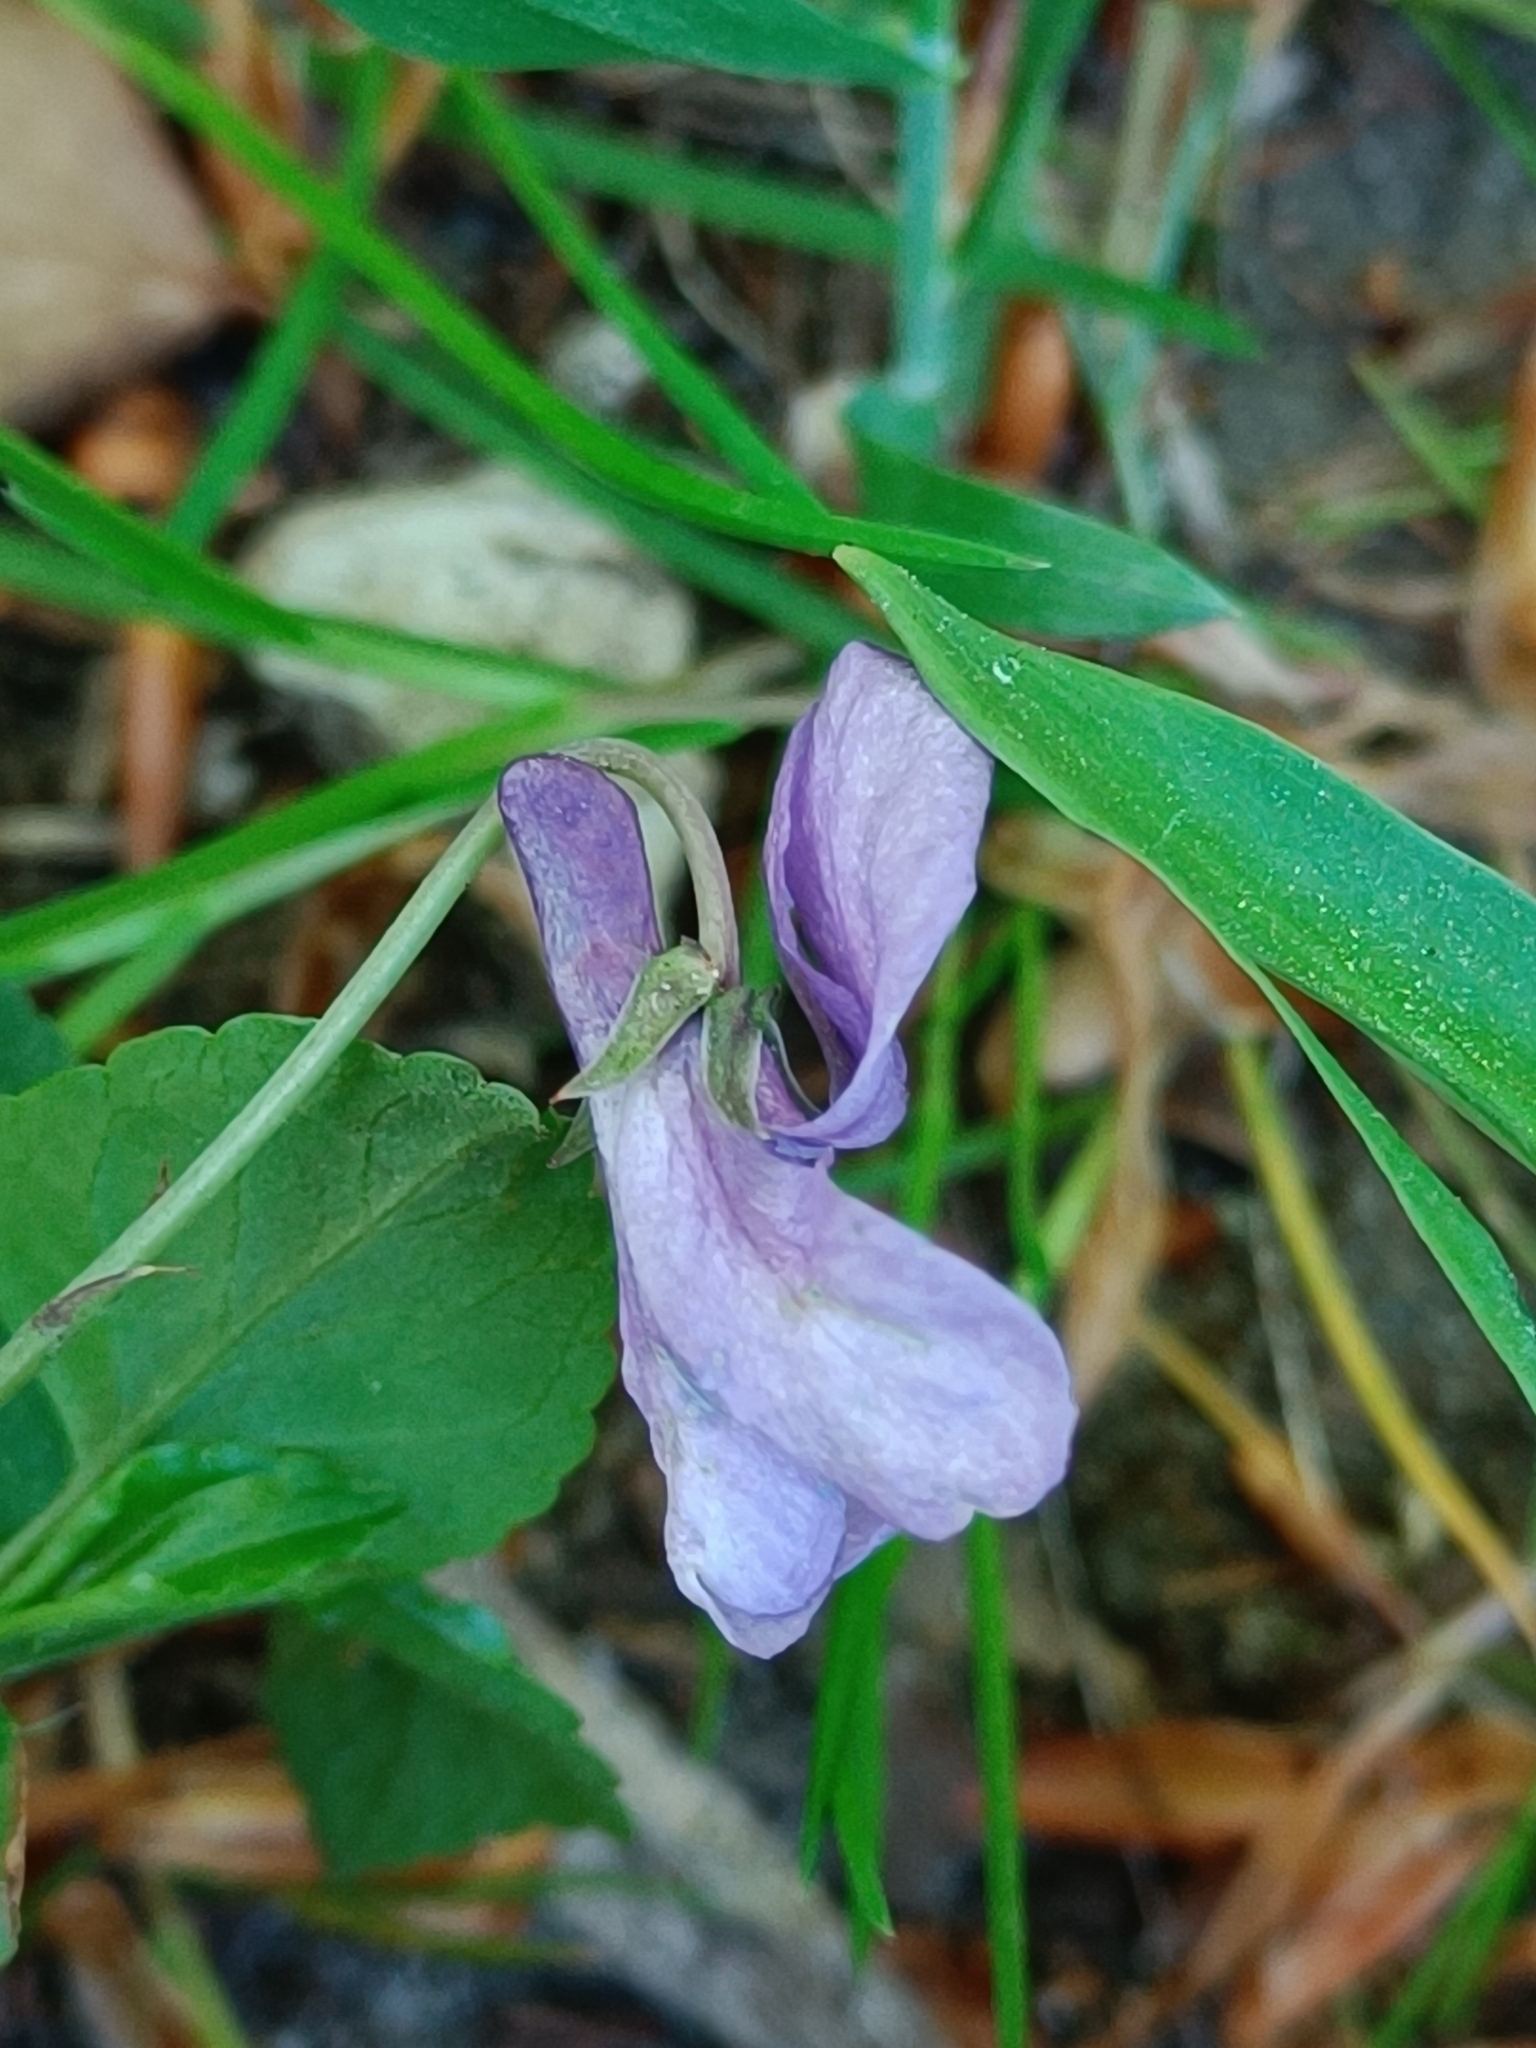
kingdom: Plantae
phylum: Tracheophyta
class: Magnoliopsida
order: Malpighiales
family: Violaceae
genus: Viola
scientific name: Viola reichenbachiana
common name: Early dog-violet
